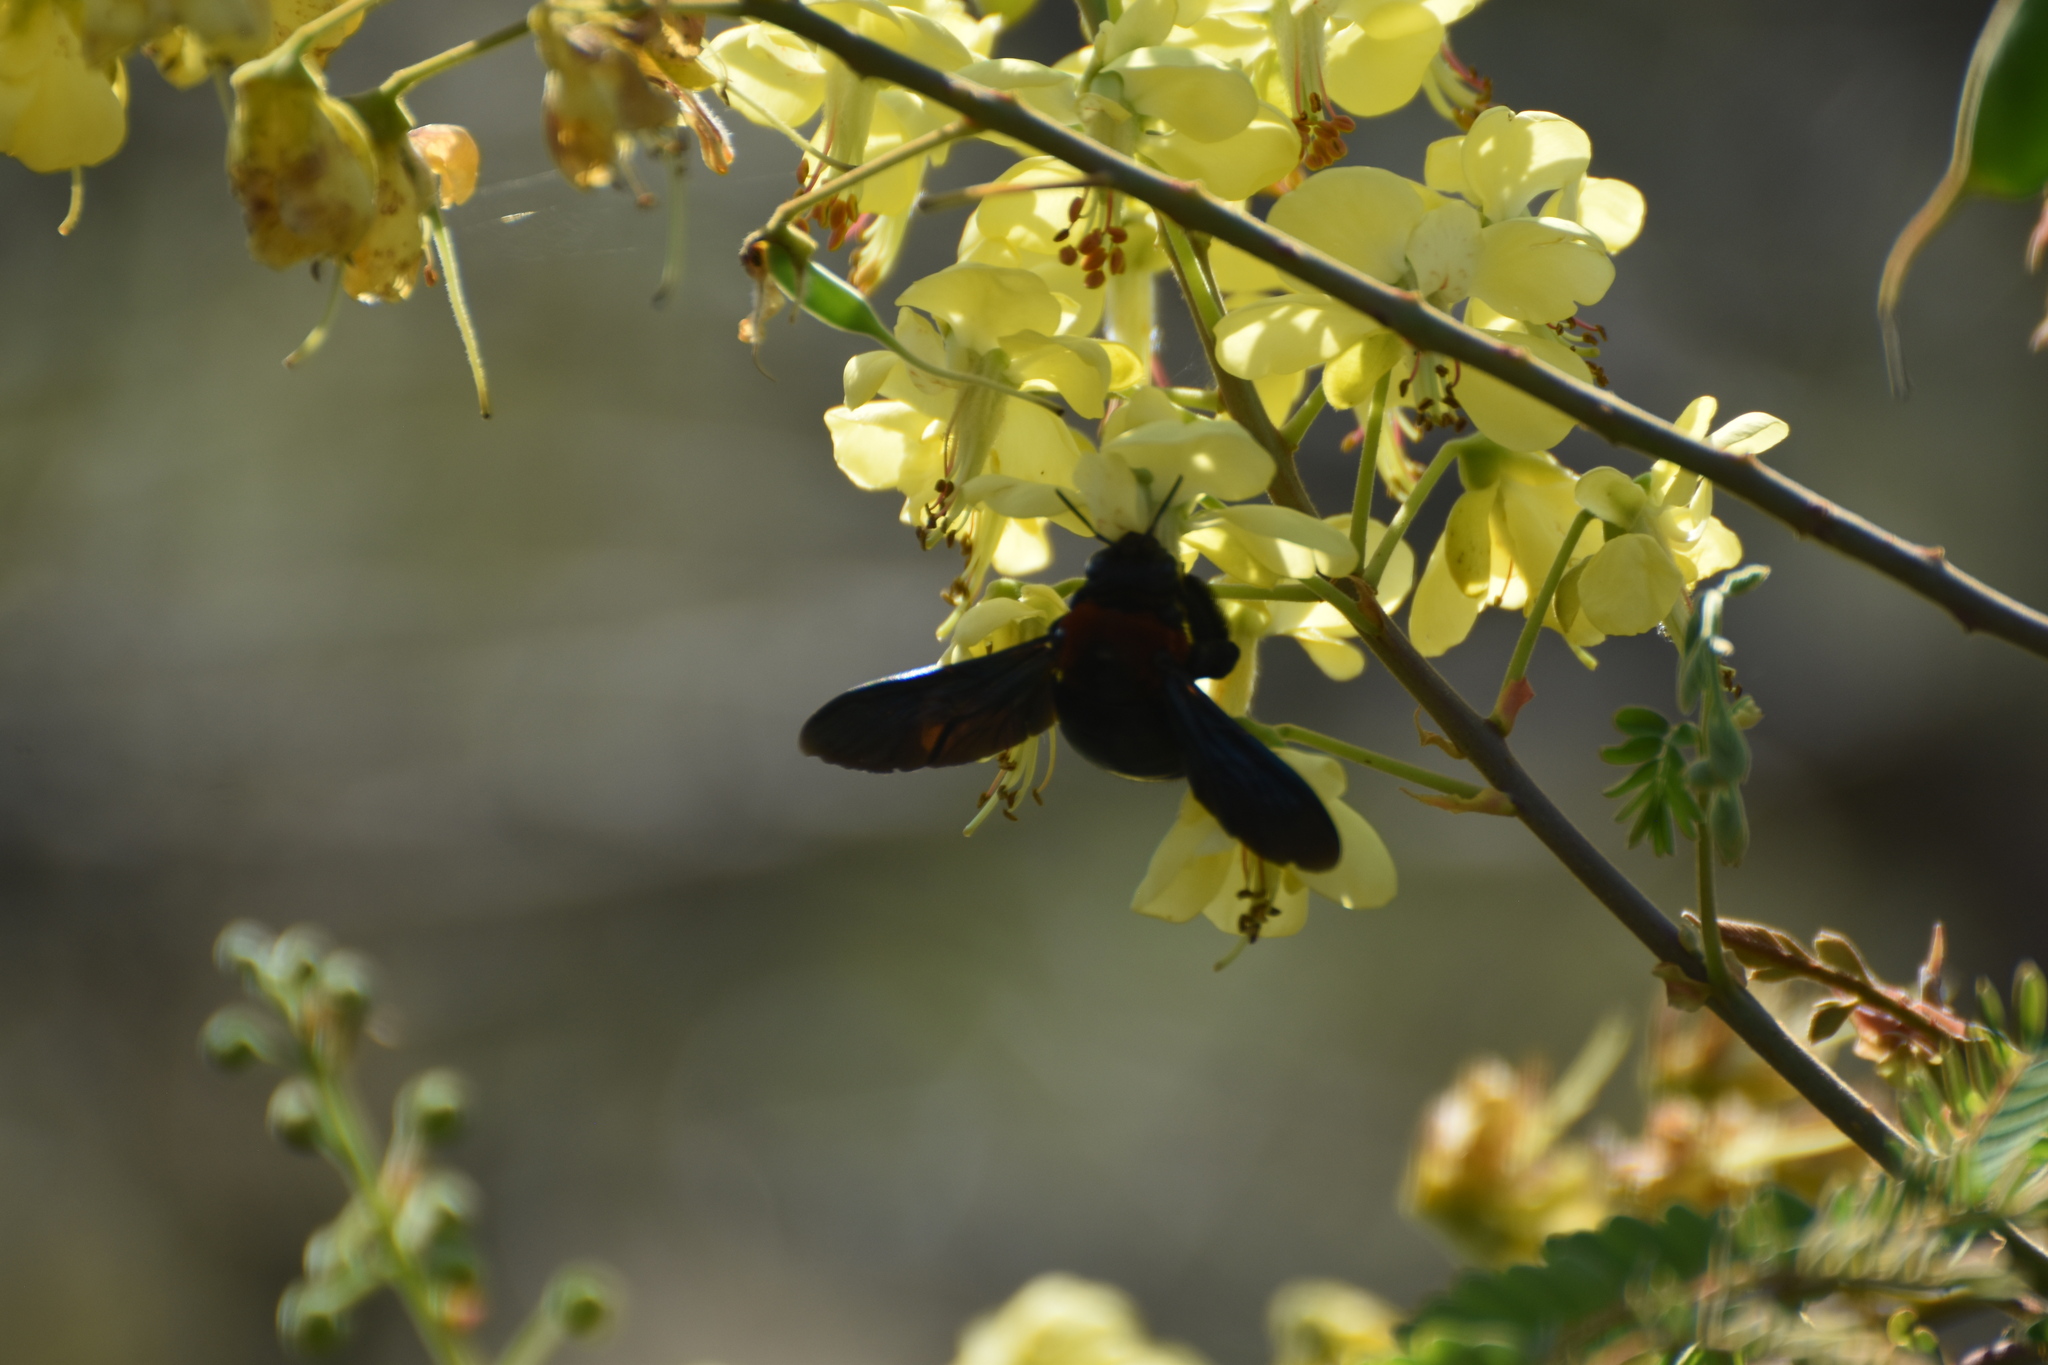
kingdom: Animalia
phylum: Arthropoda
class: Insecta
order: Hymenoptera
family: Apidae
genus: Xylocopa
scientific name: Xylocopa flavorufa
